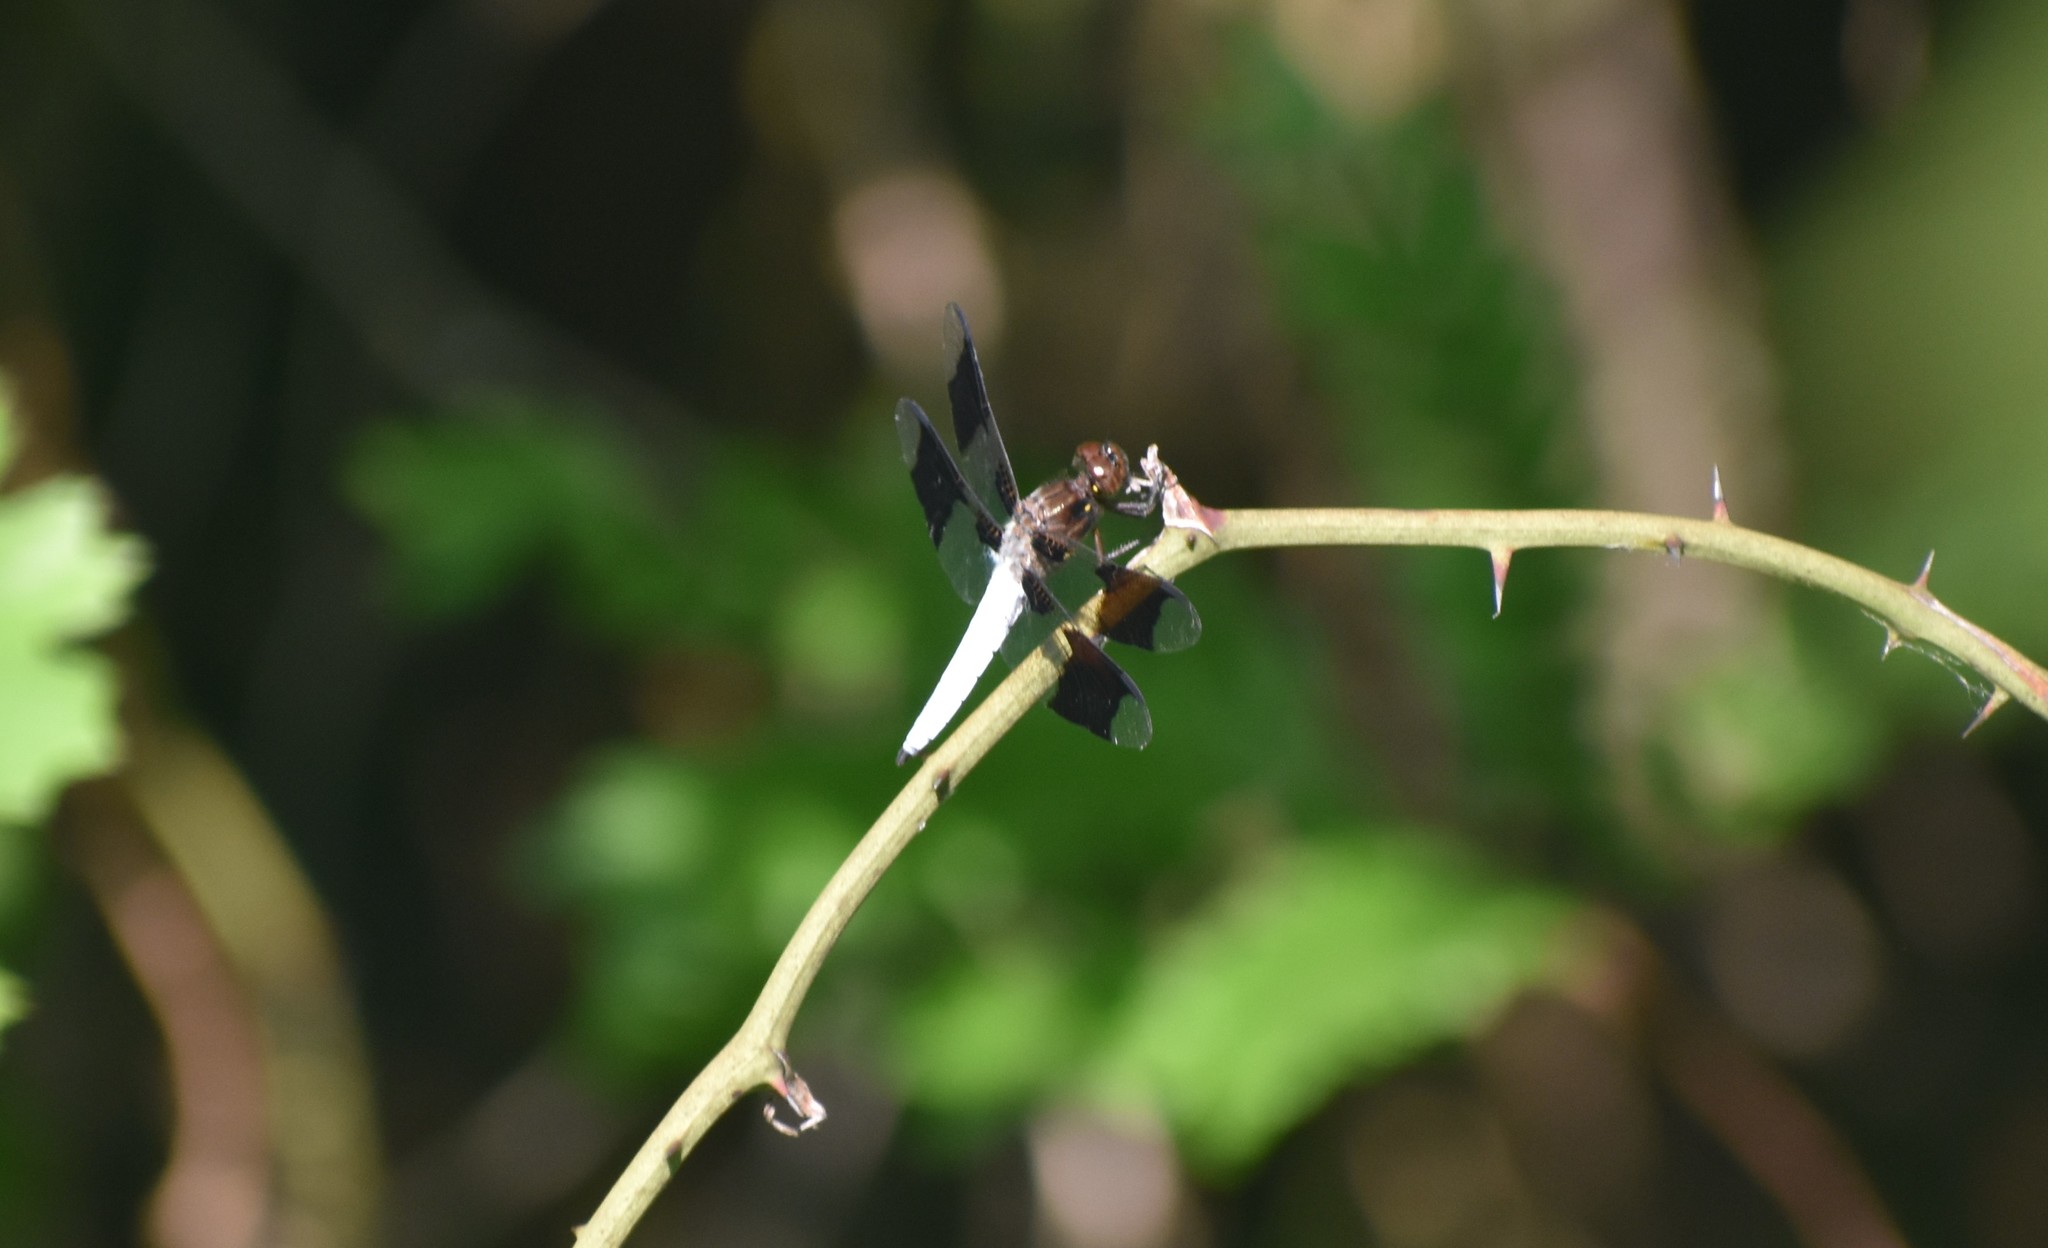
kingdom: Animalia
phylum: Arthropoda
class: Insecta
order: Odonata
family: Libellulidae
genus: Plathemis
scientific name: Plathemis lydia
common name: Common whitetail
